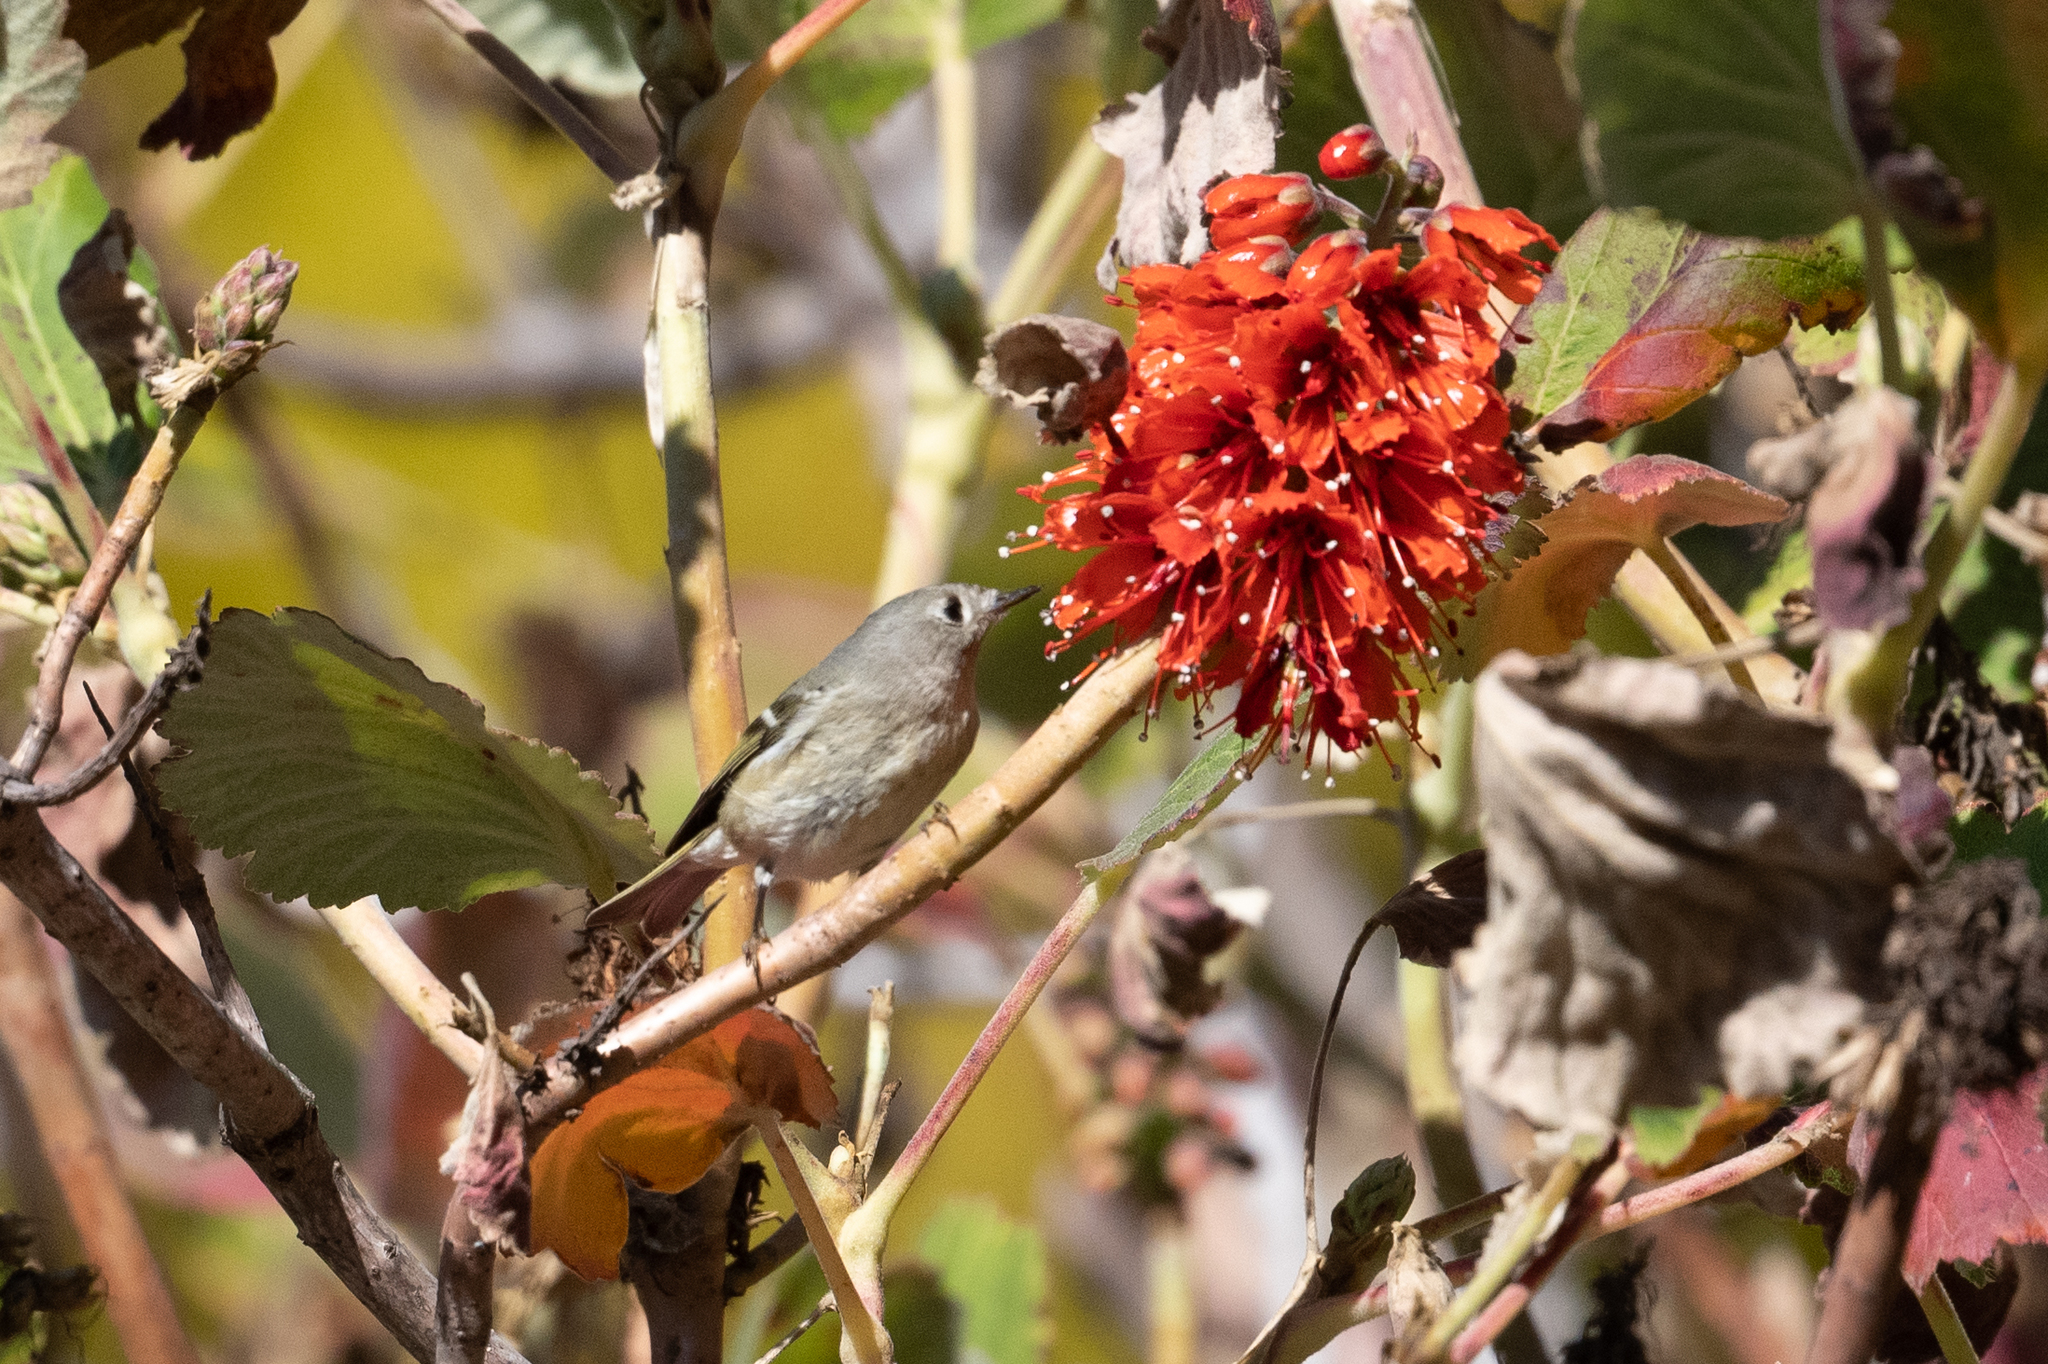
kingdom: Animalia
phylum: Chordata
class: Aves
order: Passeriformes
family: Regulidae
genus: Regulus
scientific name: Regulus calendula
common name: Ruby-crowned kinglet
